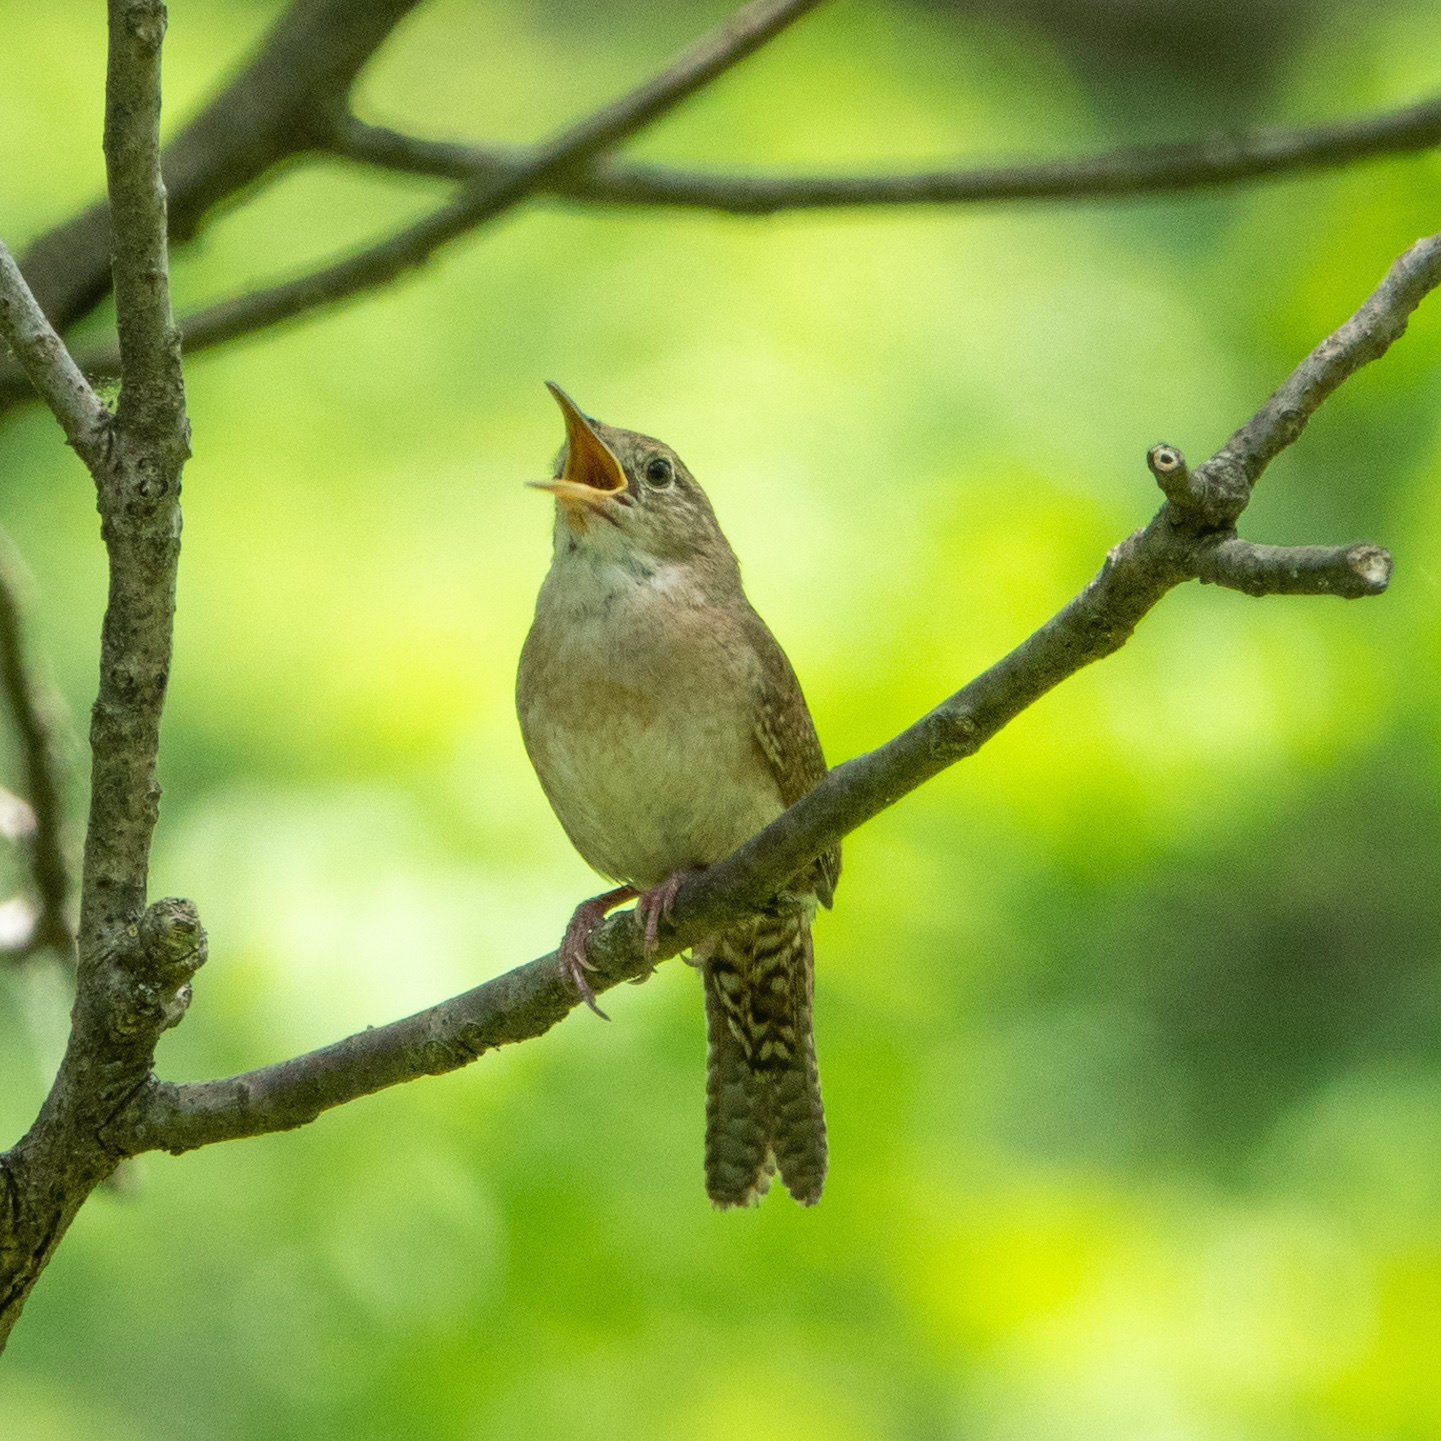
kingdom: Animalia
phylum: Chordata
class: Aves
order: Passeriformes
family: Troglodytidae
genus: Troglodytes
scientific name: Troglodytes aedon
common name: House wren
